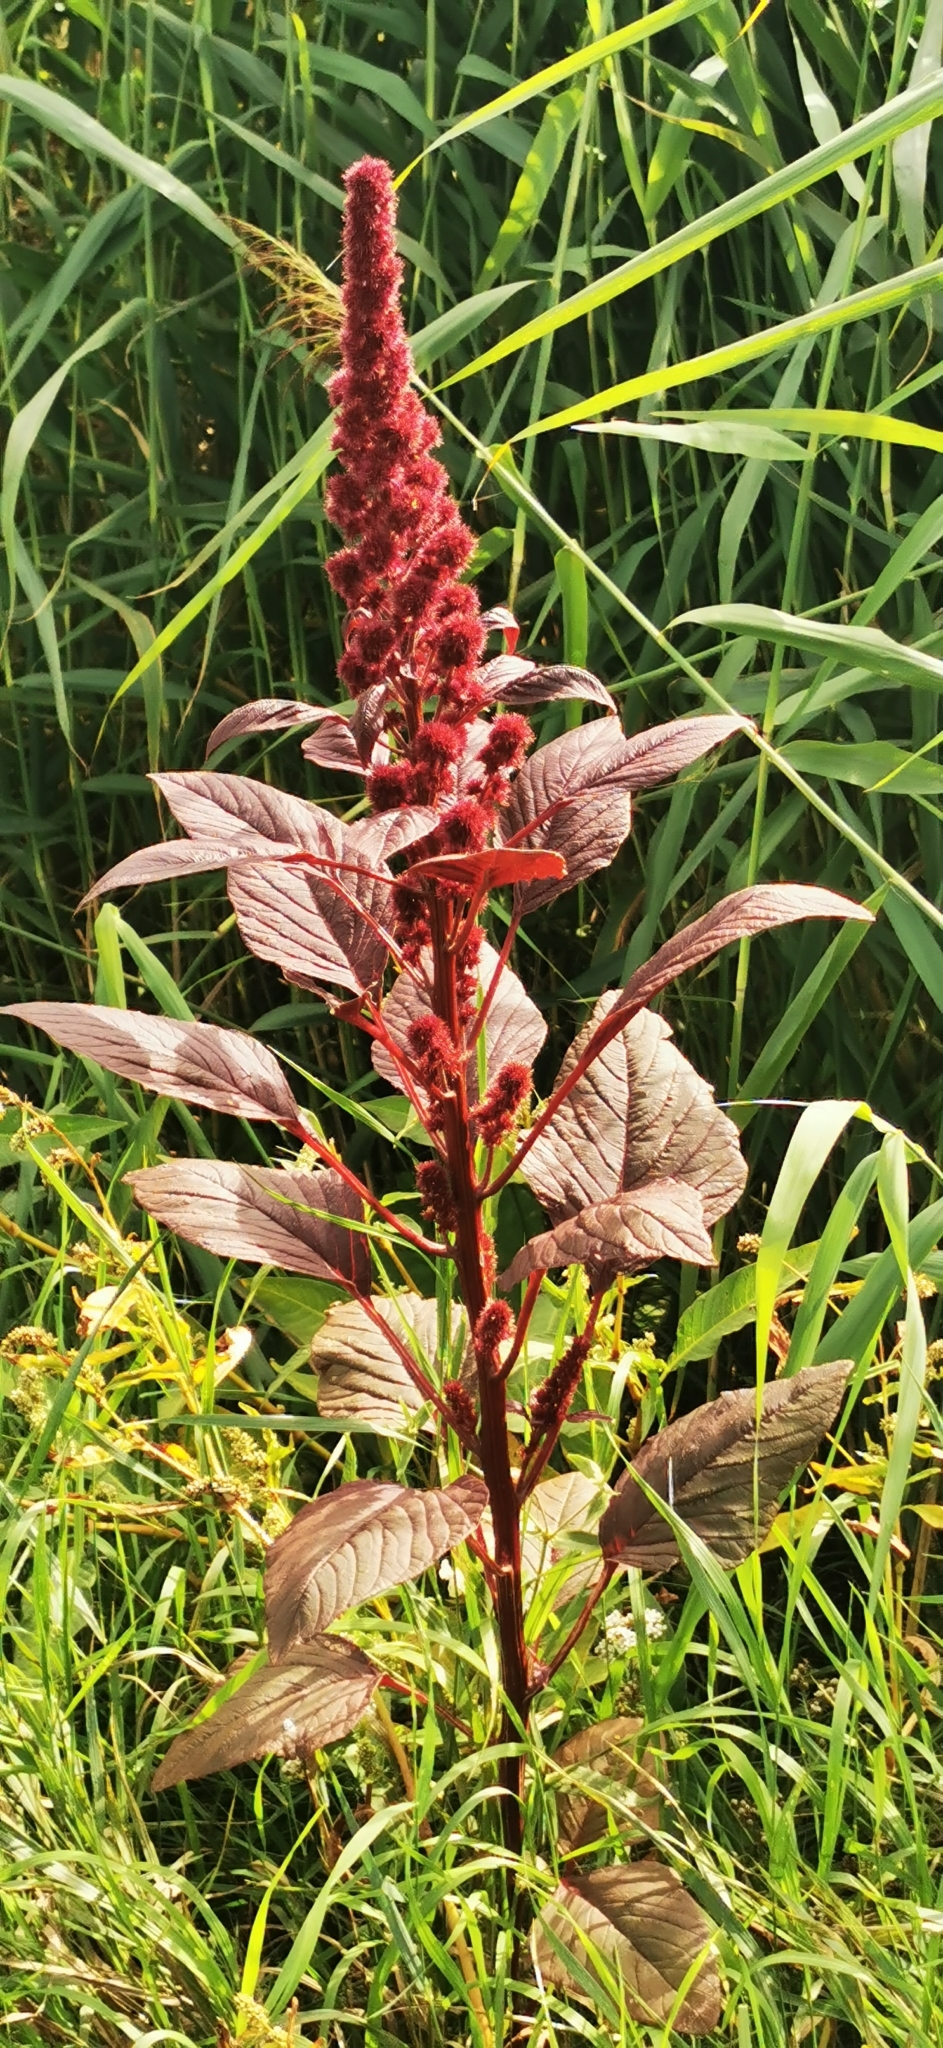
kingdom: Plantae
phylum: Tracheophyta
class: Magnoliopsida
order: Caryophyllales
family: Amaranthaceae
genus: Amaranthus
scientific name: Amaranthus cruentus
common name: Purple amaranth
